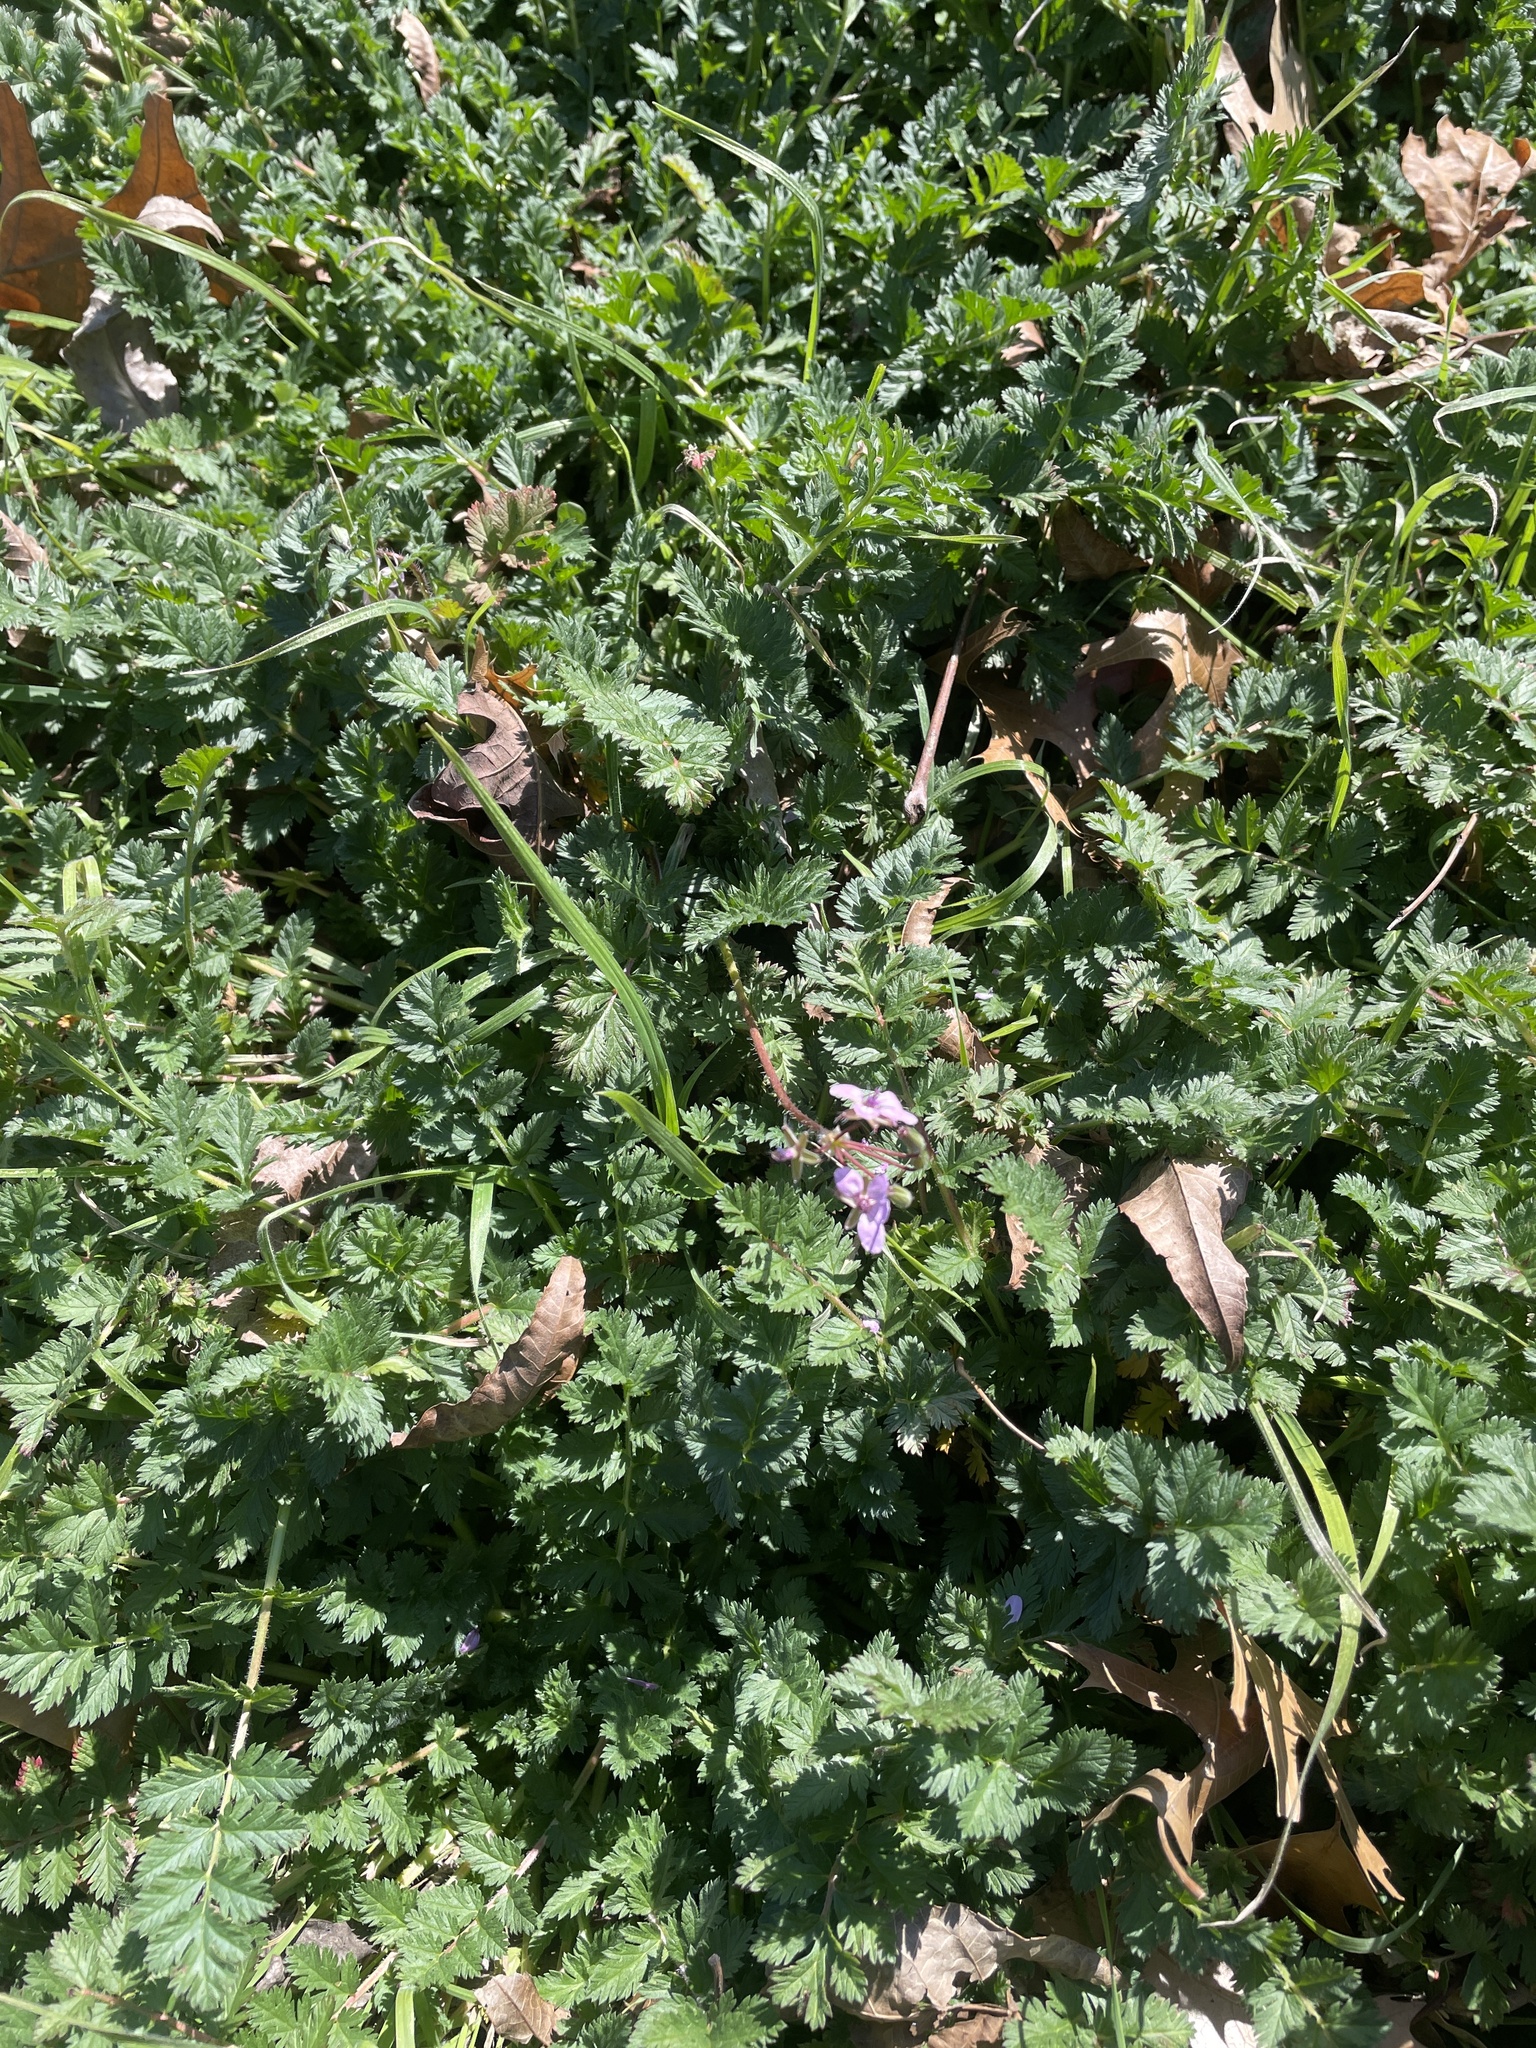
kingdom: Plantae
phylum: Tracheophyta
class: Magnoliopsida
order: Geraniales
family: Geraniaceae
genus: Erodium
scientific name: Erodium cicutarium
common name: Common stork's-bill
